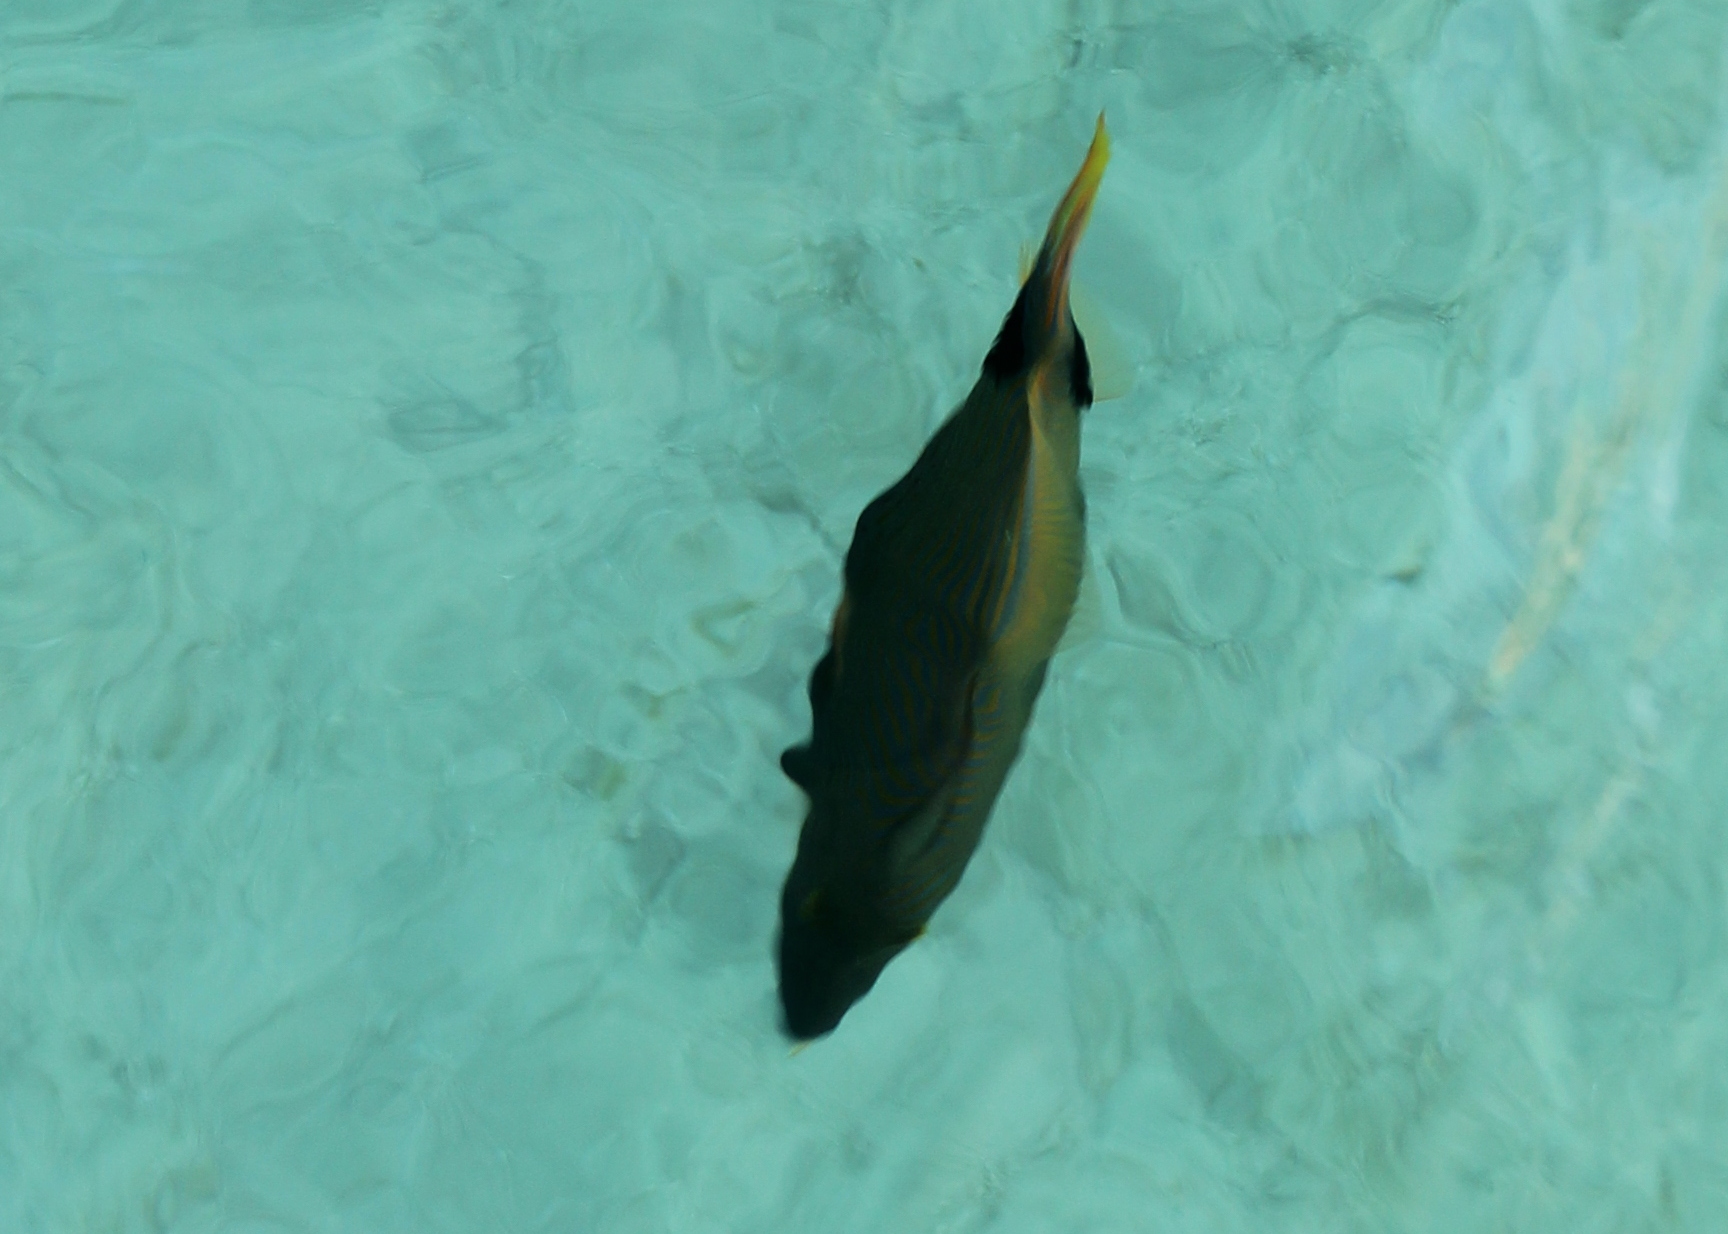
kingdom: Animalia
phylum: Chordata
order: Tetraodontiformes
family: Balistidae
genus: Balistapus
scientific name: Balistapus undulatus
